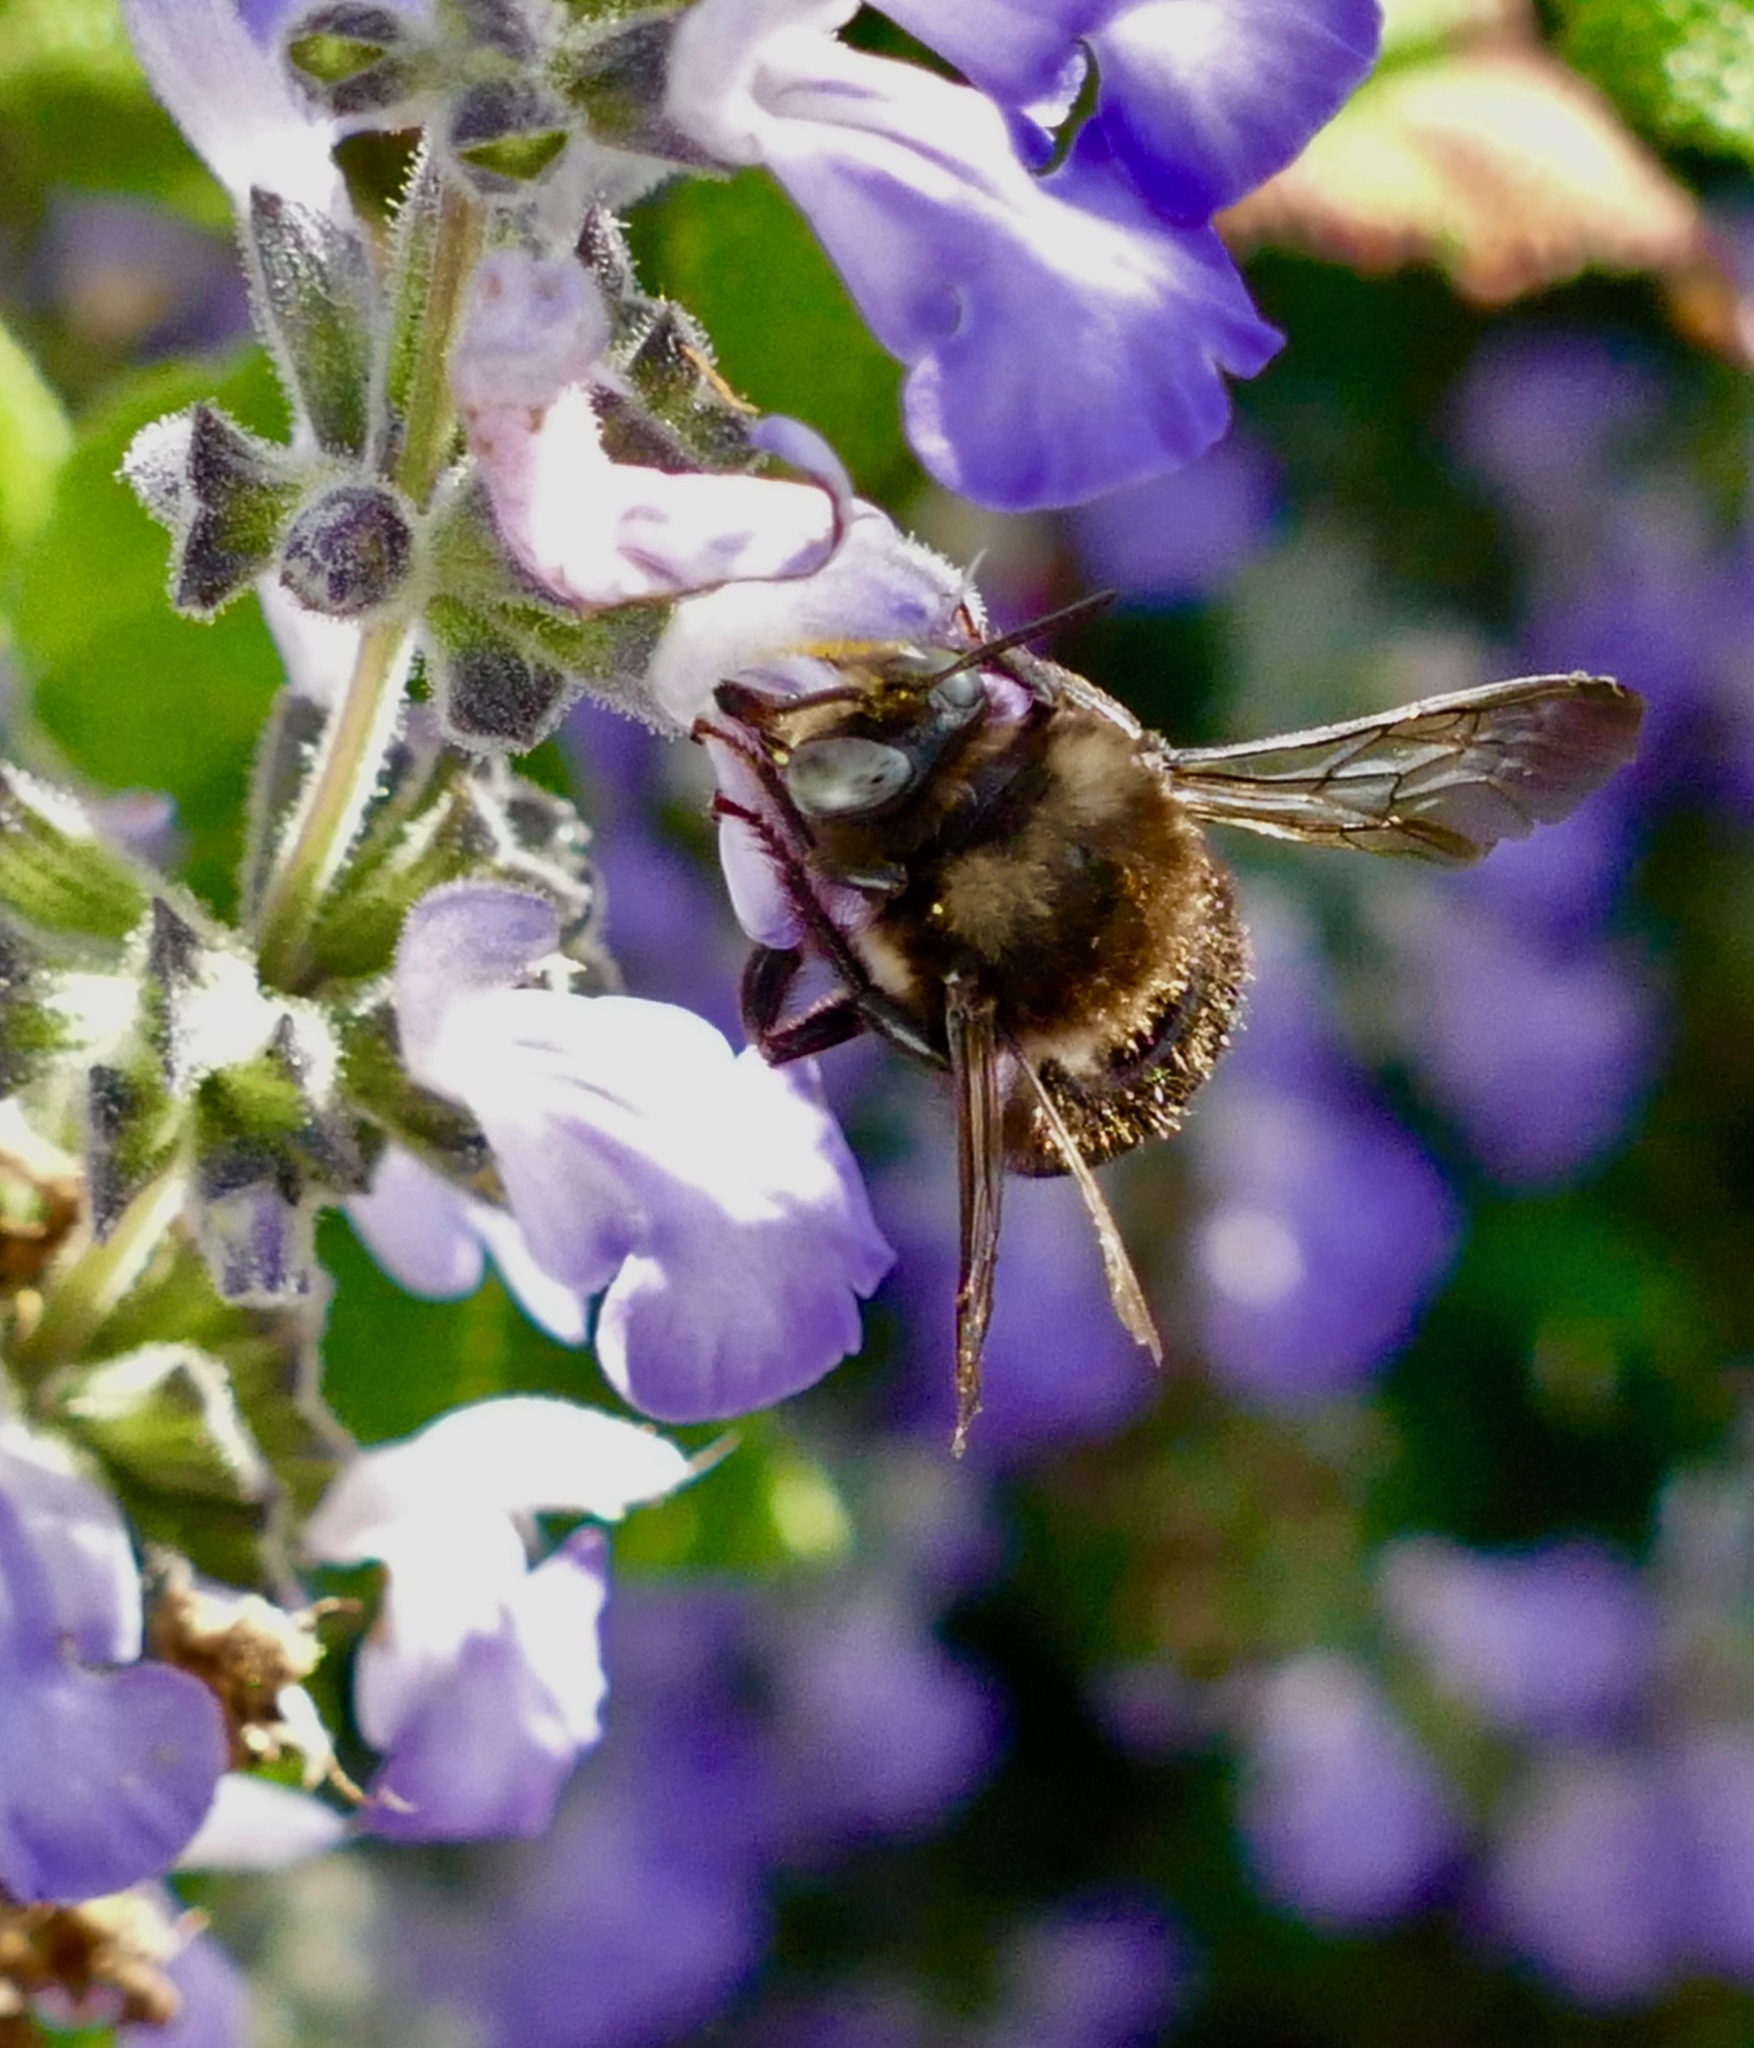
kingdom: Animalia
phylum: Arthropoda
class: Insecta
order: Hymenoptera
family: Apidae
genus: Xylocopa
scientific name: Xylocopa tabaniformis
